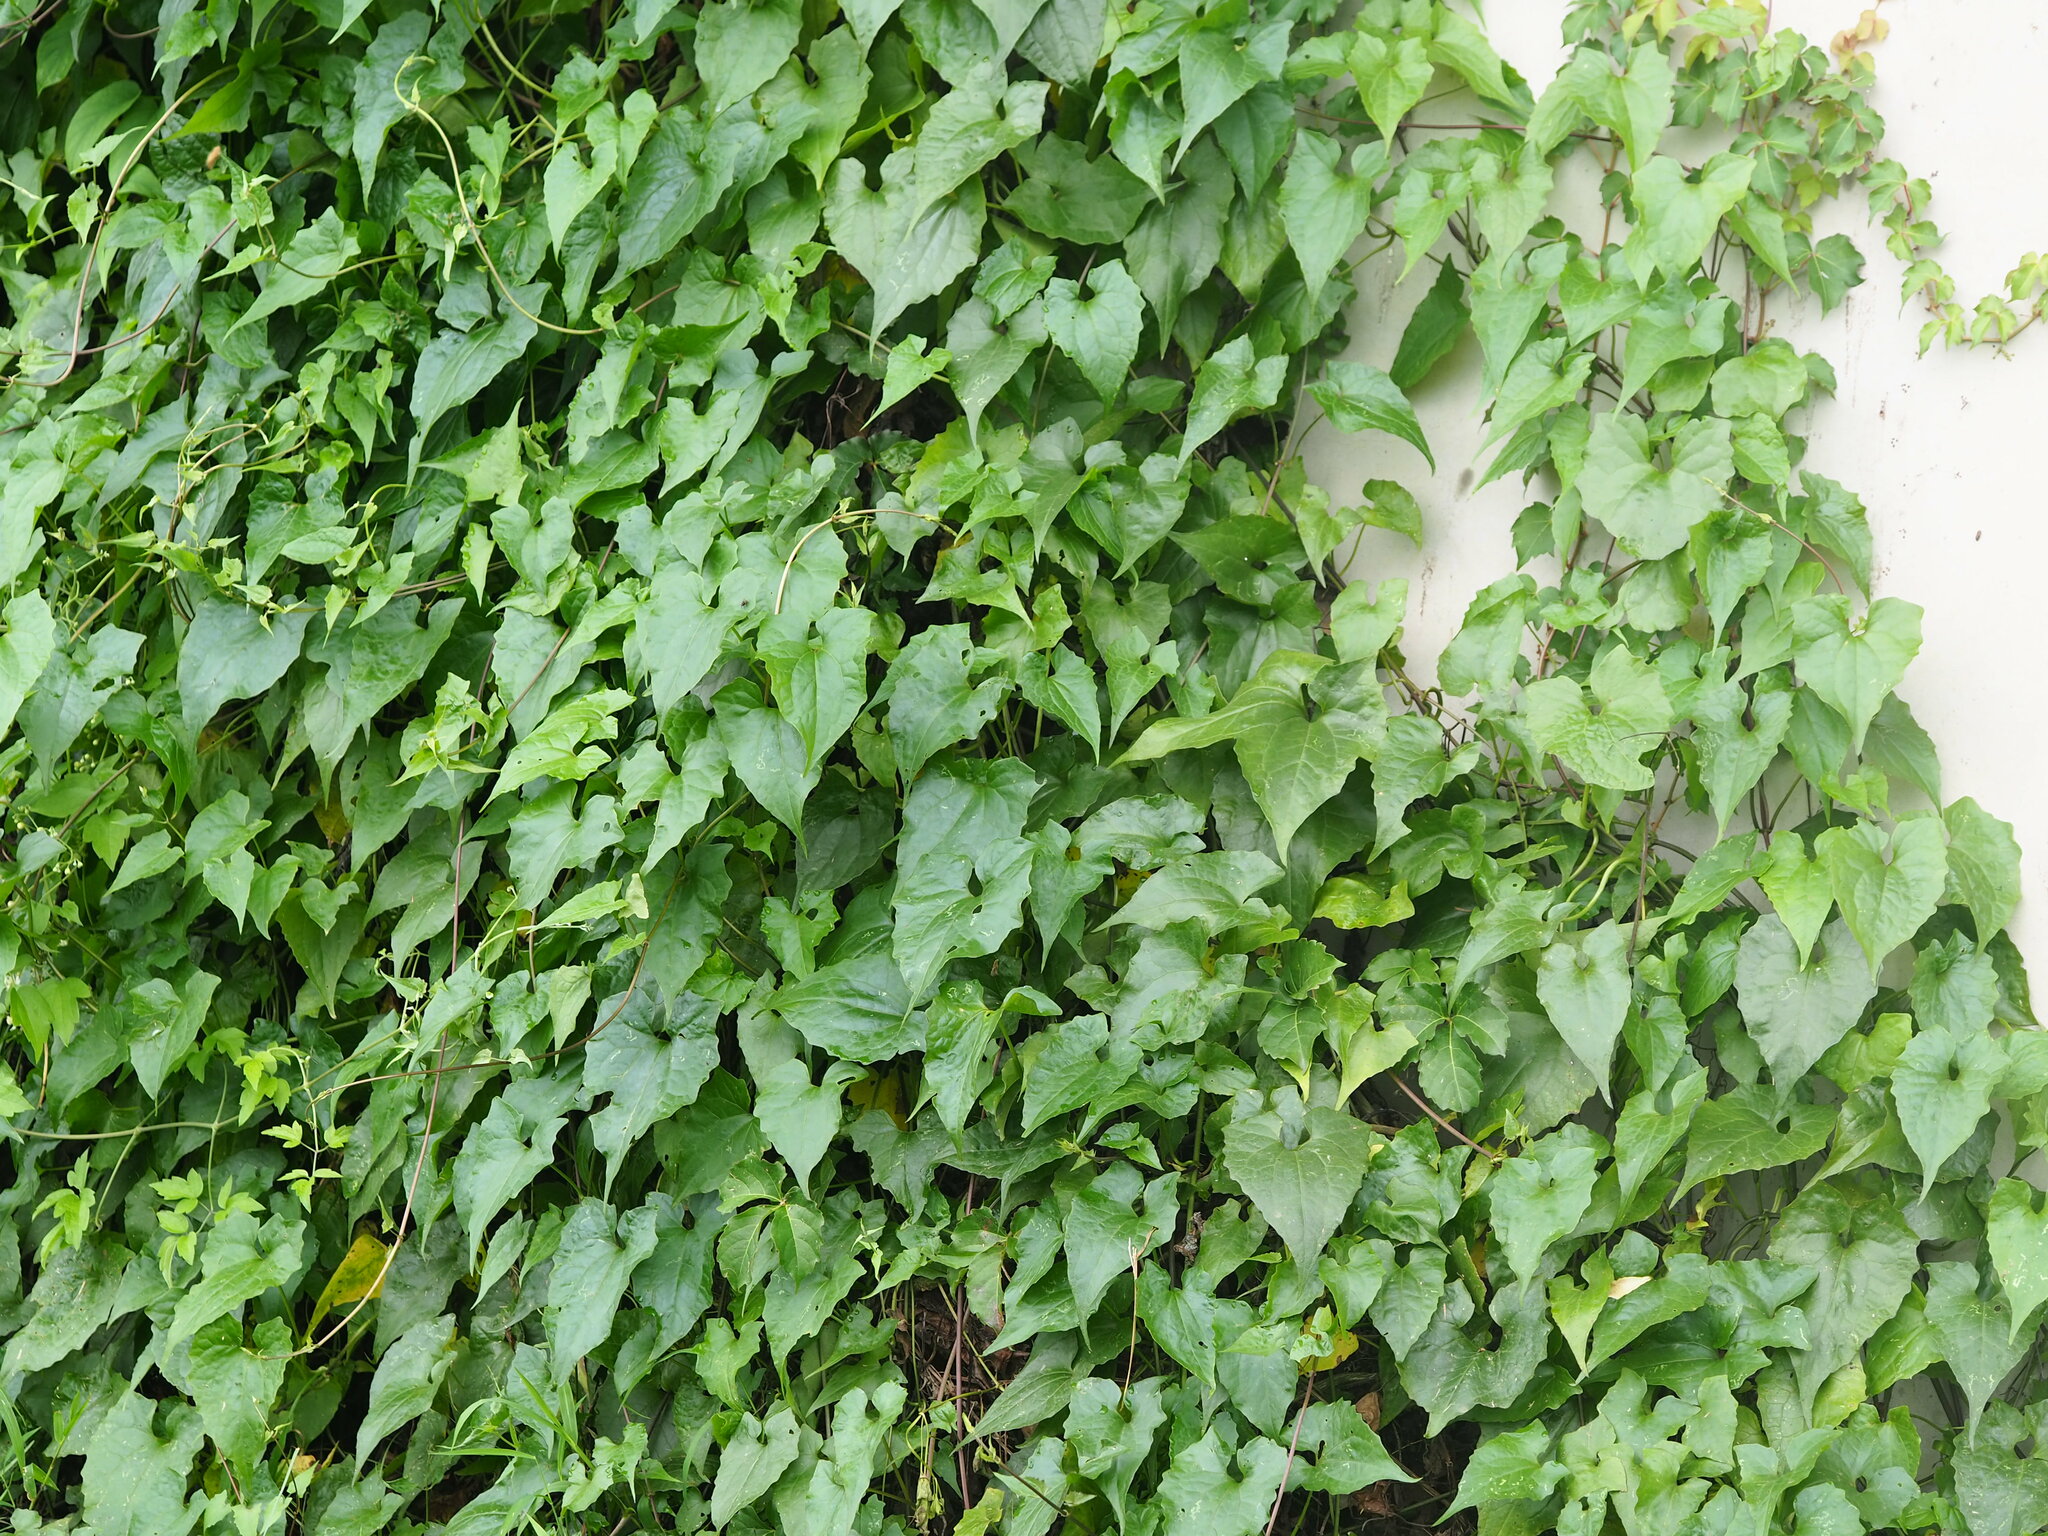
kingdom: Plantae
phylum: Tracheophyta
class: Magnoliopsida
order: Asterales
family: Asteraceae
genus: Mikania
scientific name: Mikania micrantha
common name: Mile-a-minute
